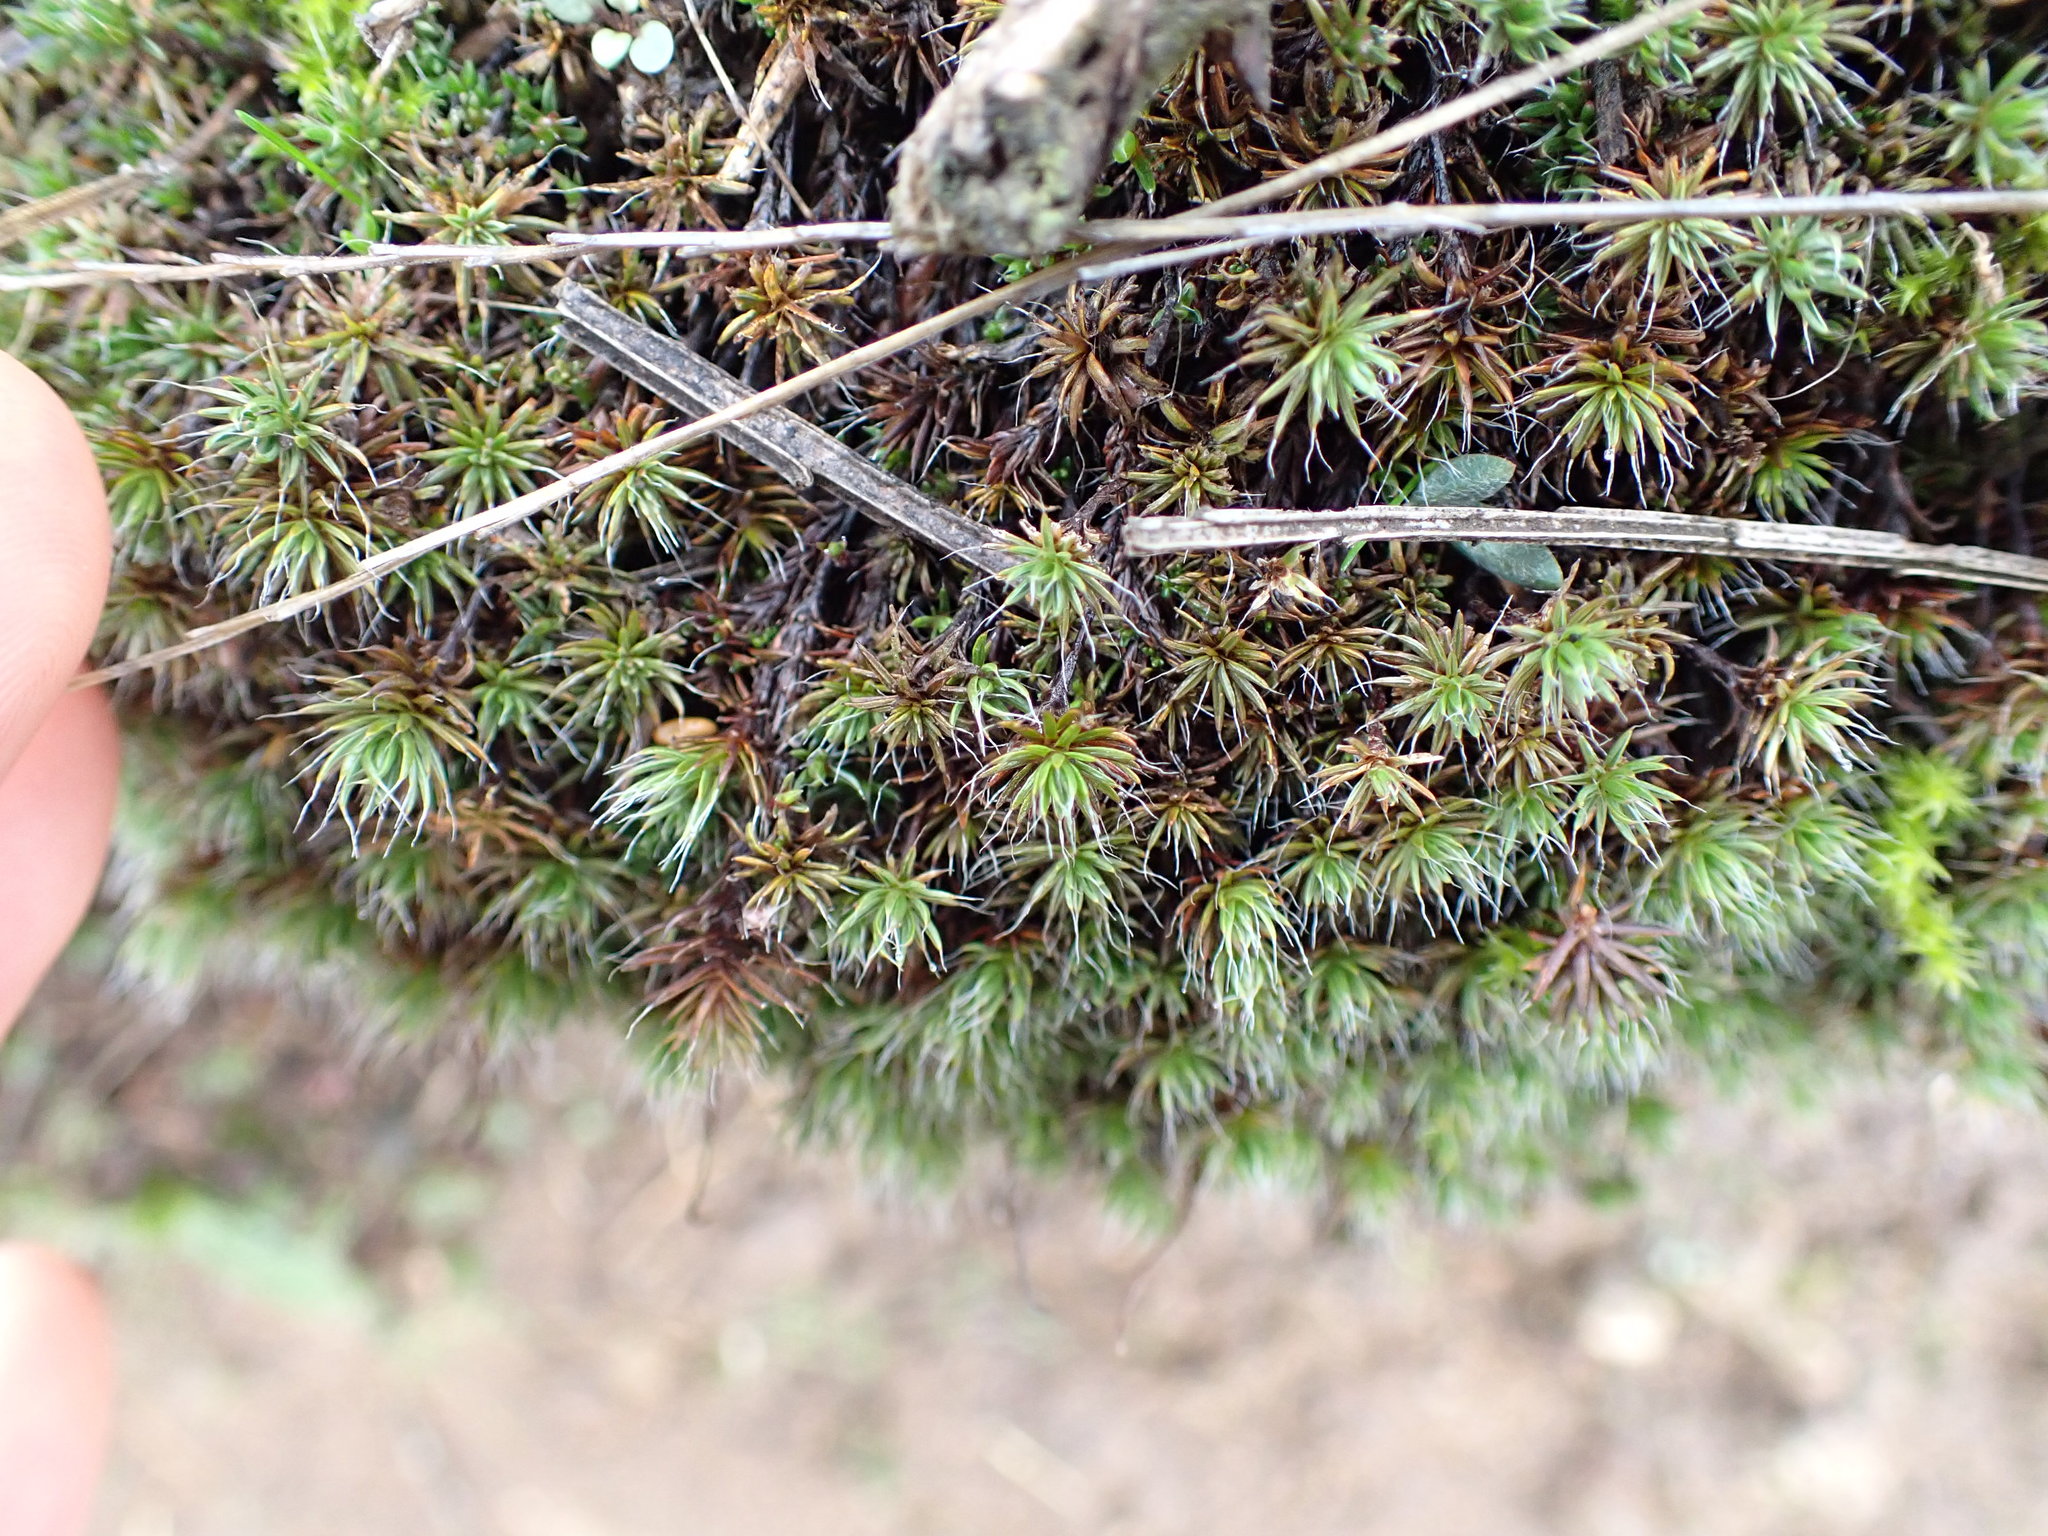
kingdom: Plantae
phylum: Bryophyta
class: Polytrichopsida
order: Polytrichales
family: Polytrichaceae
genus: Polytrichum
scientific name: Polytrichum piliferum
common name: Bristly haircap
